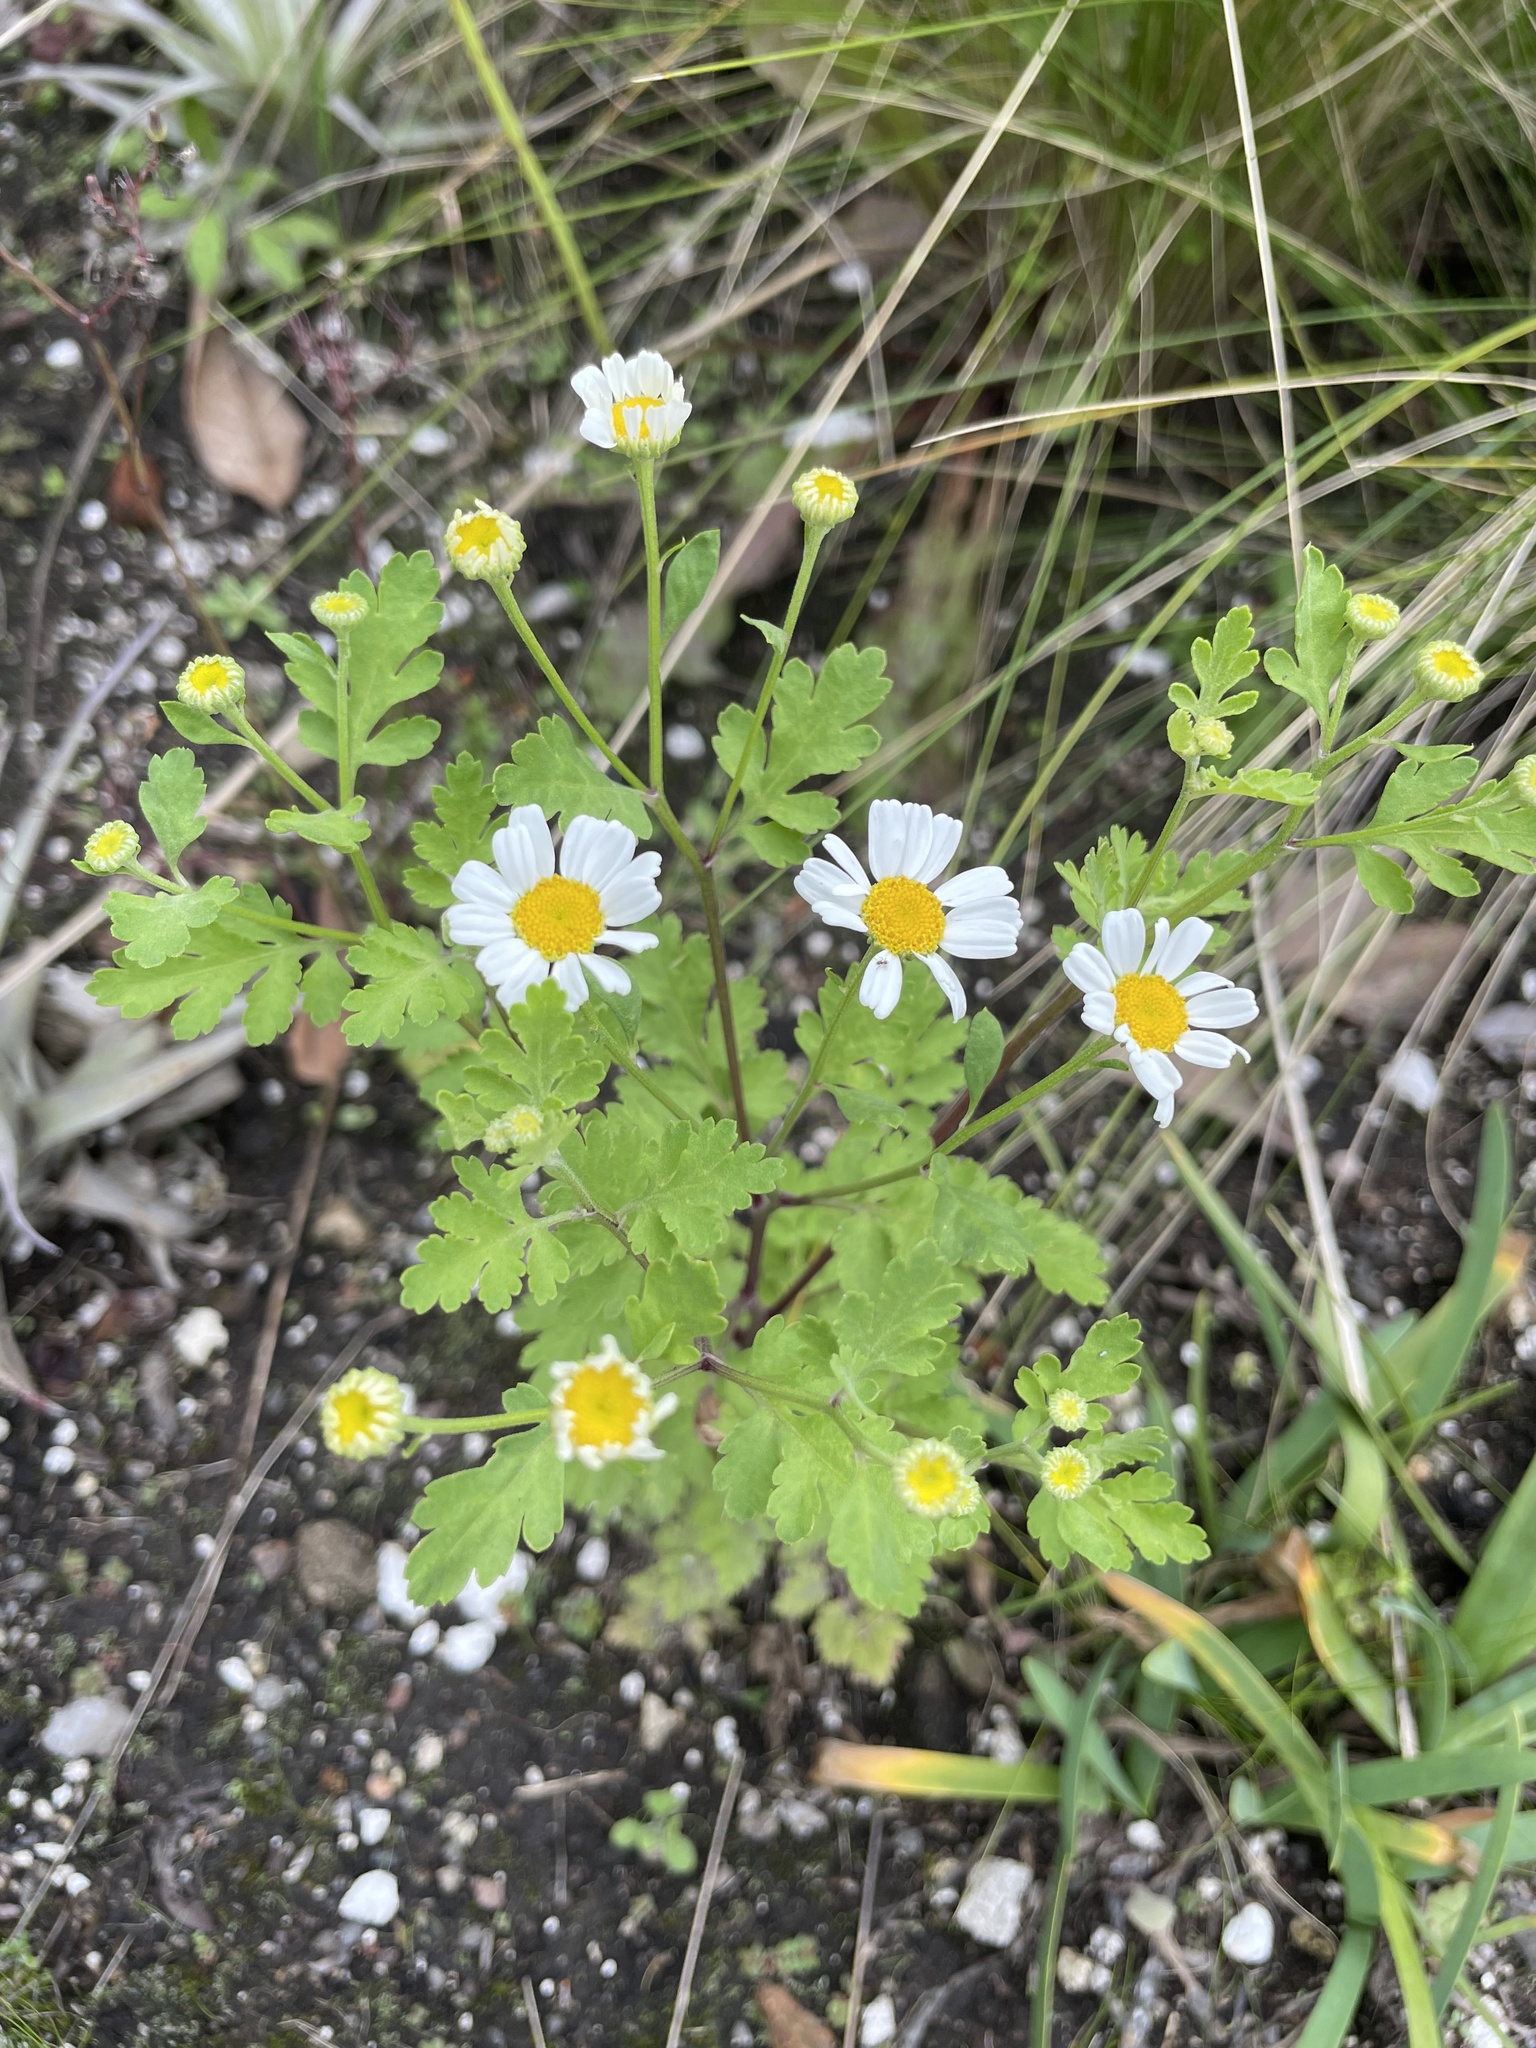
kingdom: Plantae
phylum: Tracheophyta
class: Magnoliopsida
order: Asterales
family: Asteraceae
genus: Tanacetum
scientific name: Tanacetum parthenium
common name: Feverfew
